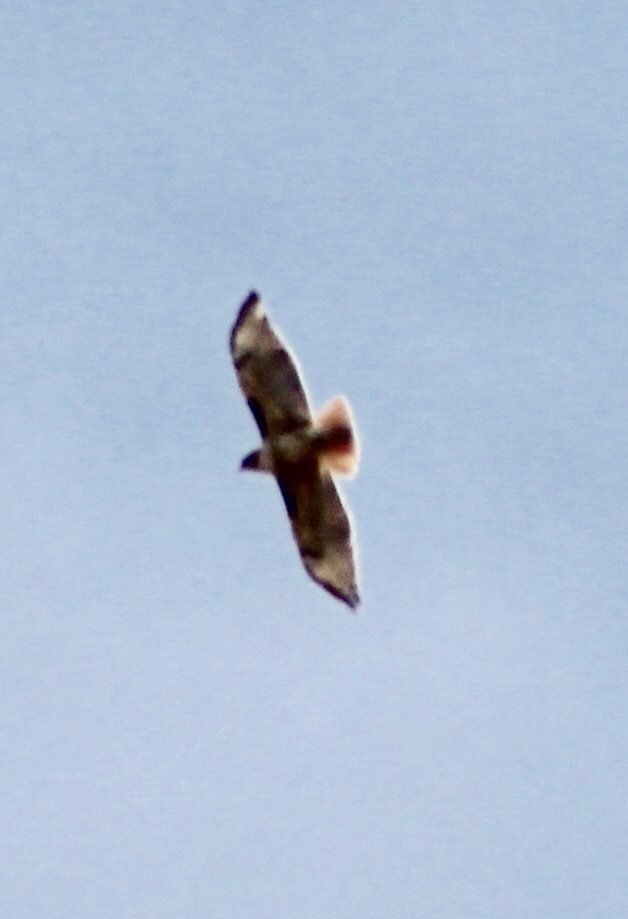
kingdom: Animalia
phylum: Chordata
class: Aves
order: Accipitriformes
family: Accipitridae
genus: Buteo
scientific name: Buteo jamaicensis
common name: Red-tailed hawk
